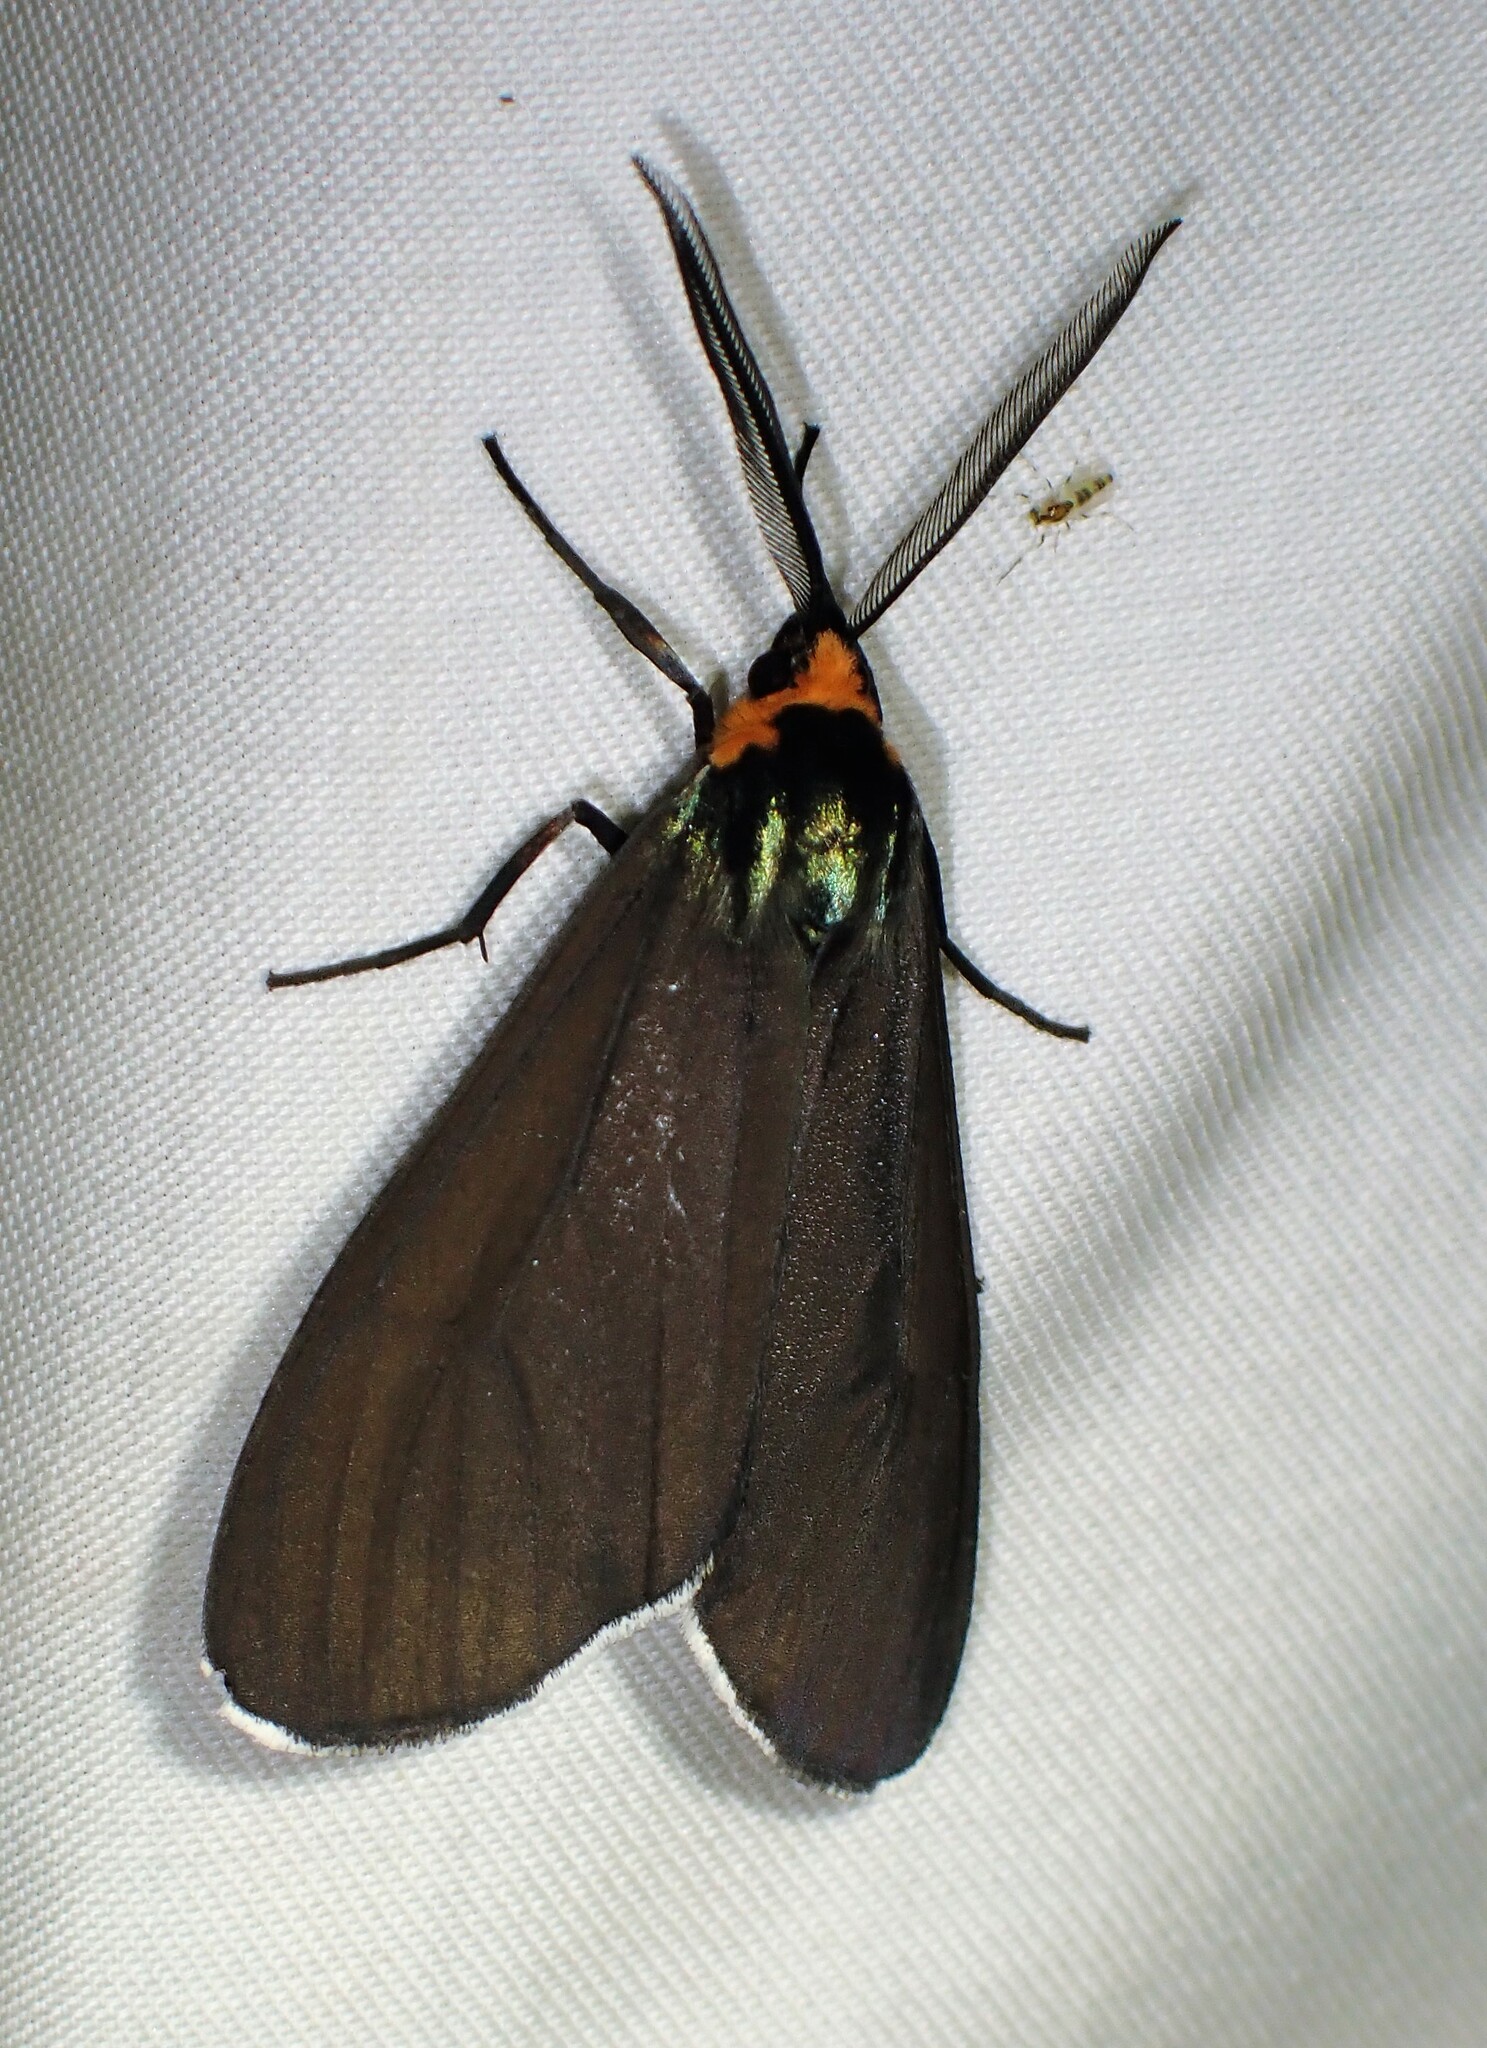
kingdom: Animalia
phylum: Arthropoda
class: Insecta
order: Lepidoptera
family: Erebidae
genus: Ctenucha
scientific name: Ctenucha virginica
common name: Virginia ctenucha moth
